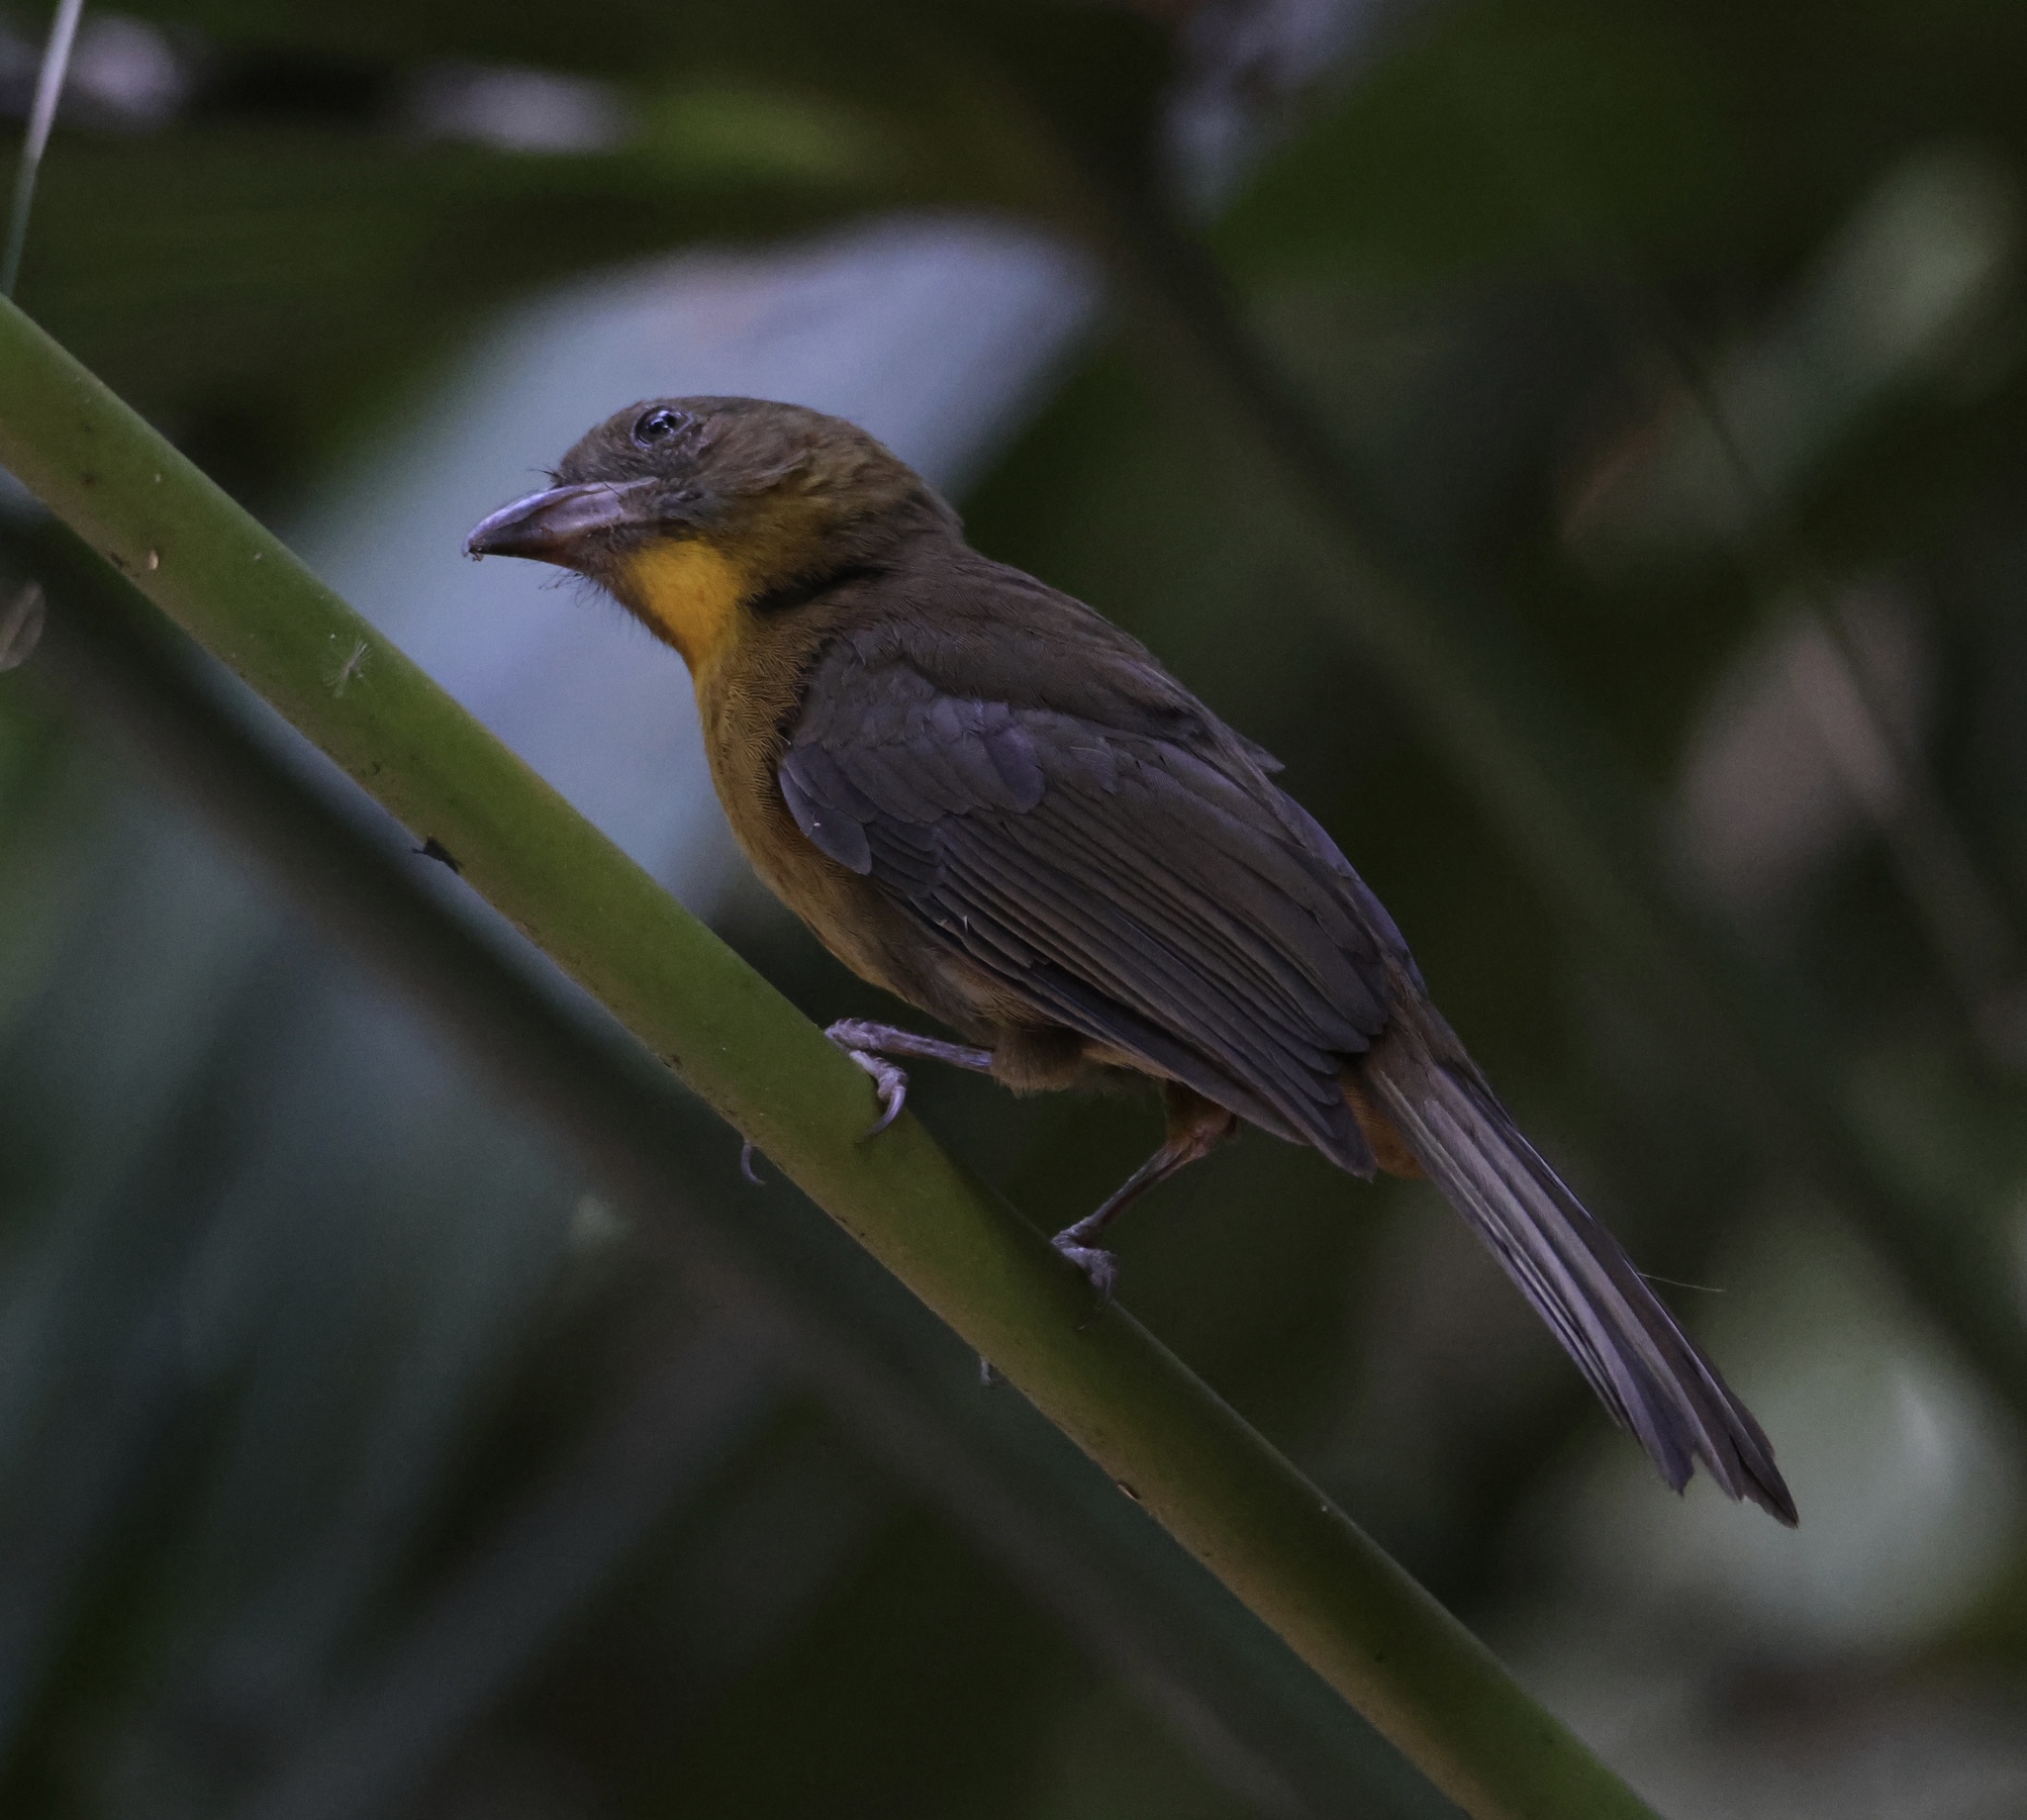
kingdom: Animalia
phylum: Chordata
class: Aves
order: Passeriformes
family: Cardinalidae
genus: Habia
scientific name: Habia fuscicauda
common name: Red-throated ant-tanager
